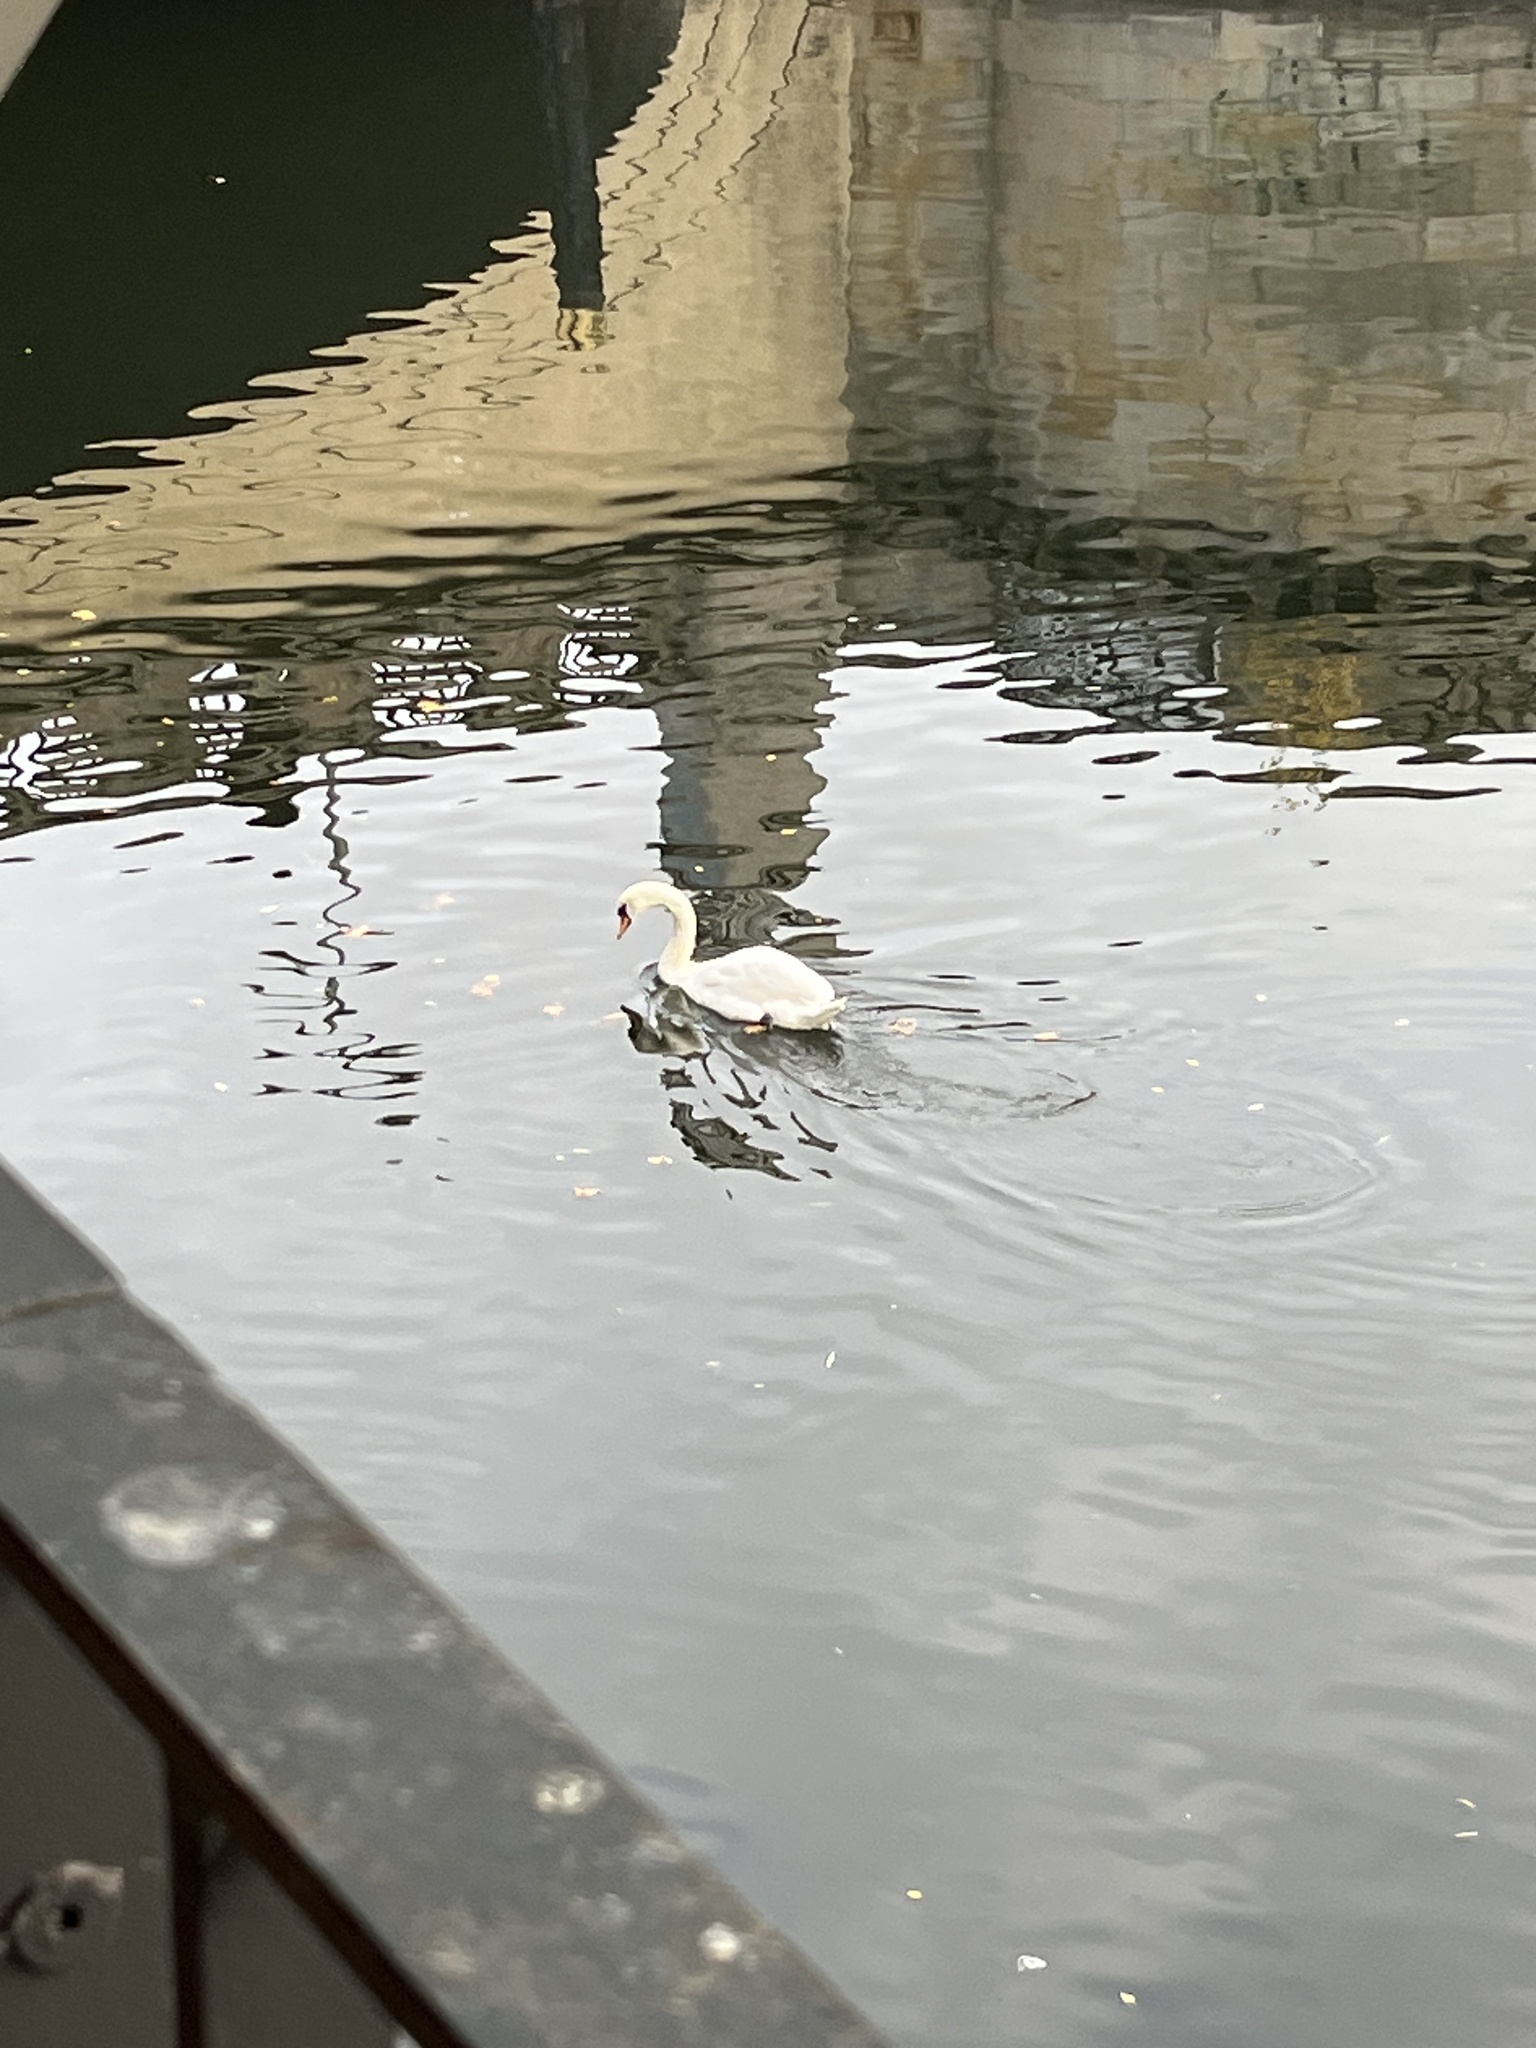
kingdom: Animalia
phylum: Chordata
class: Aves
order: Anseriformes
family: Anatidae
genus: Cygnus
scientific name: Cygnus olor
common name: Mute swan
